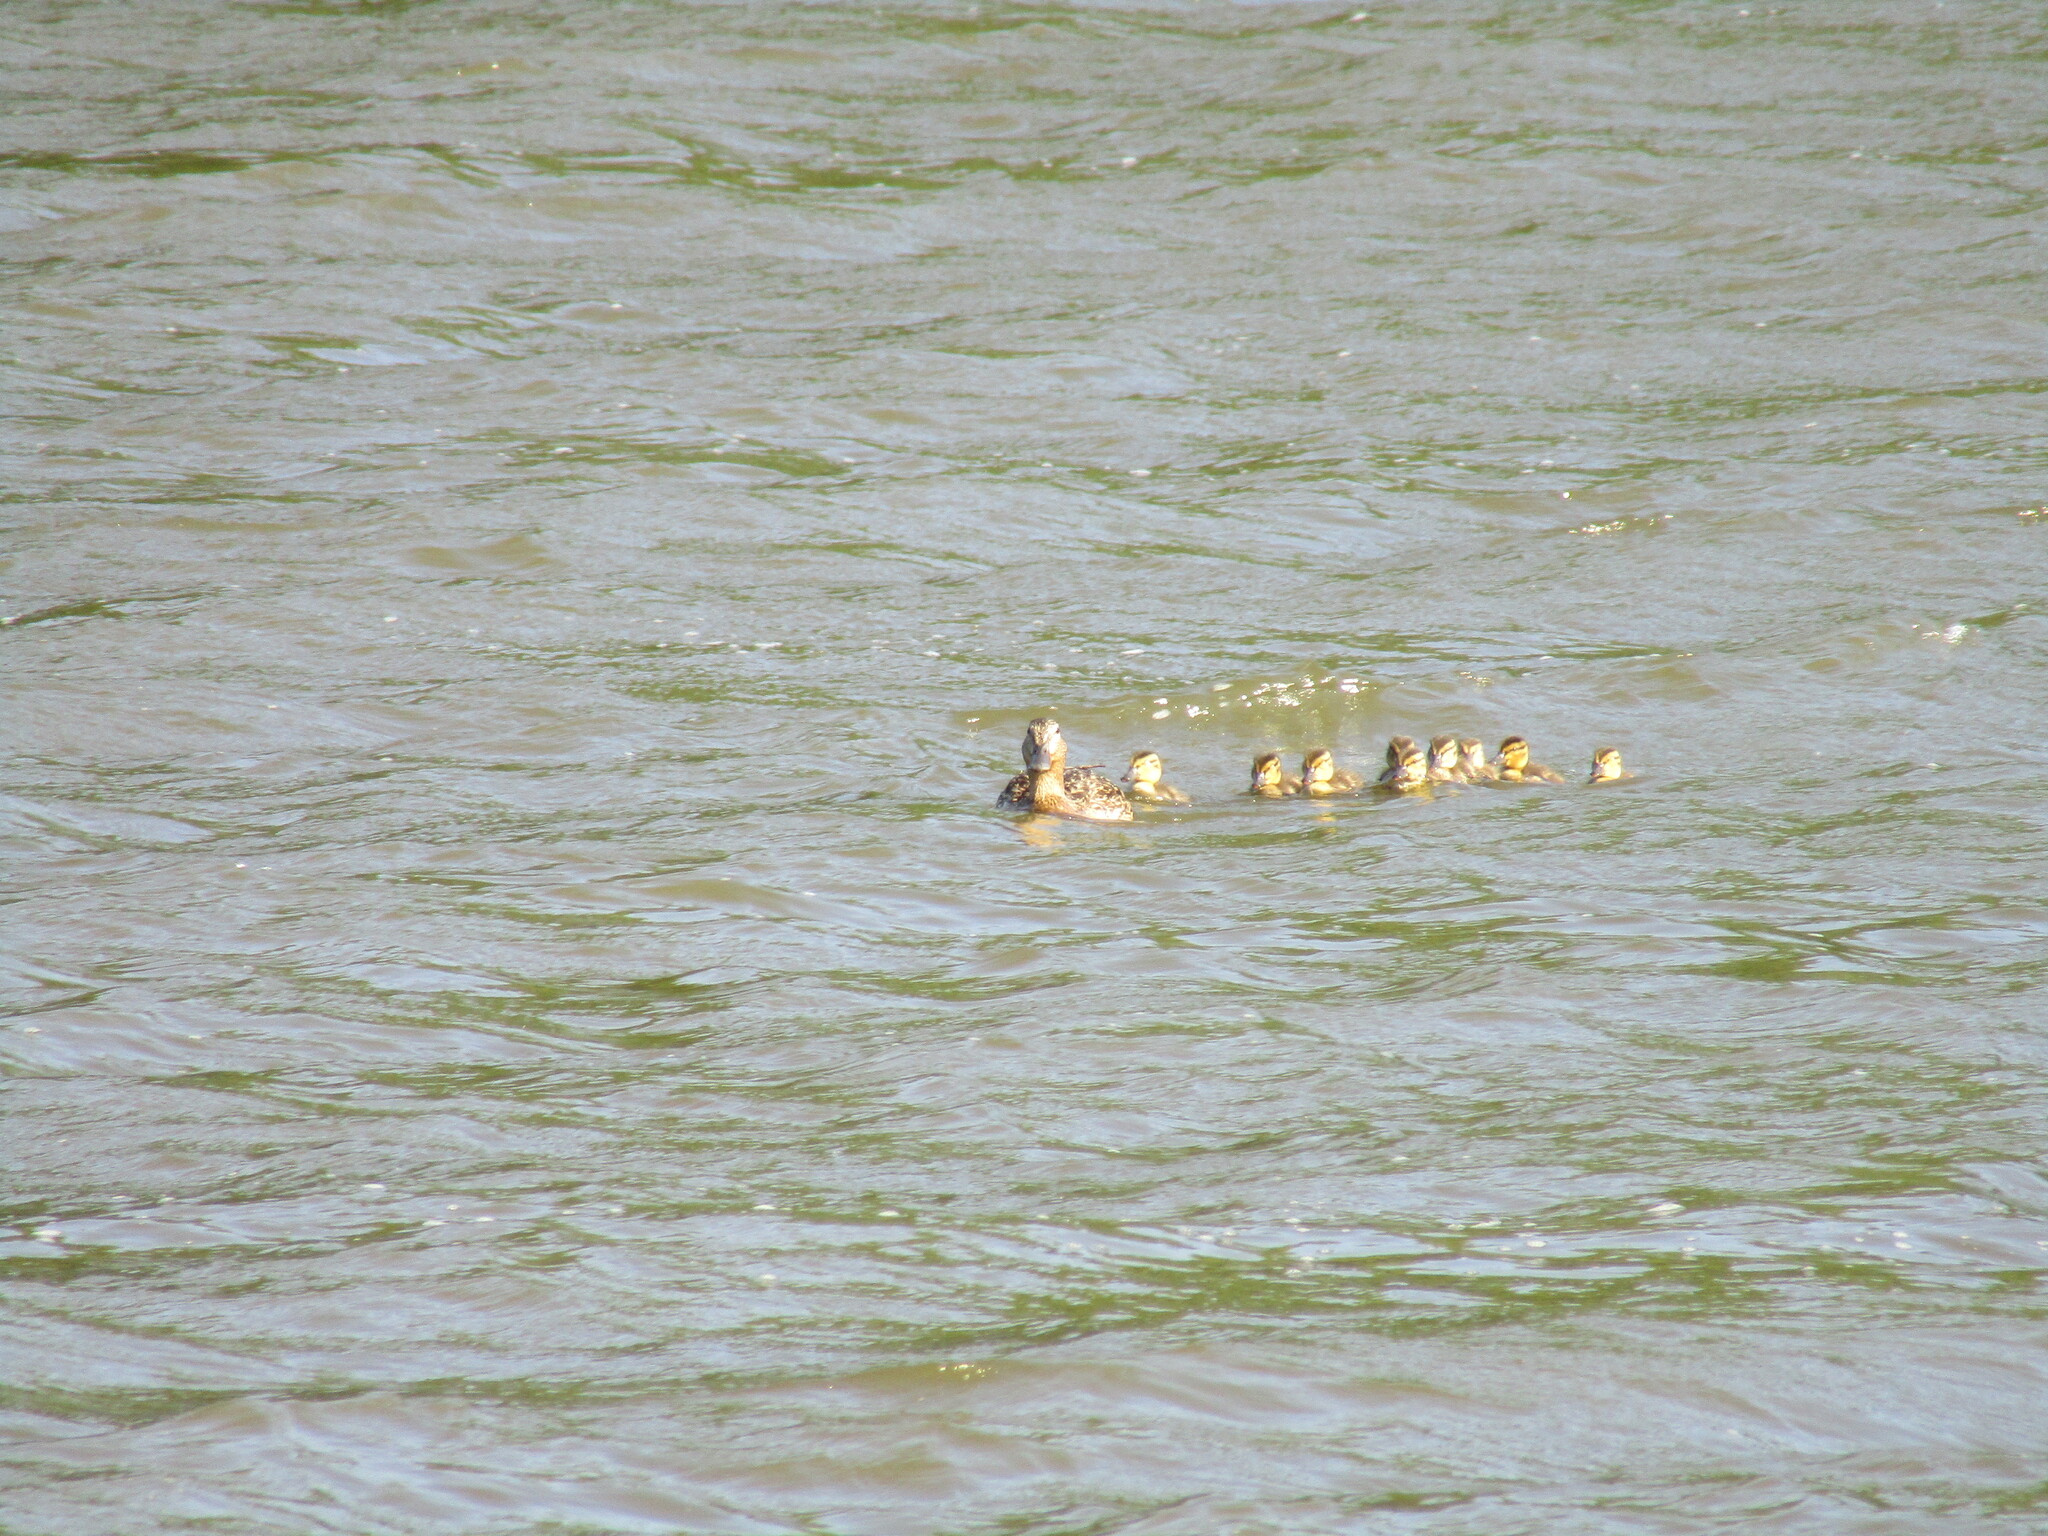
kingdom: Animalia
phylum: Chordata
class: Aves
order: Anseriformes
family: Anatidae
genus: Anas
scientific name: Anas platyrhynchos
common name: Mallard
